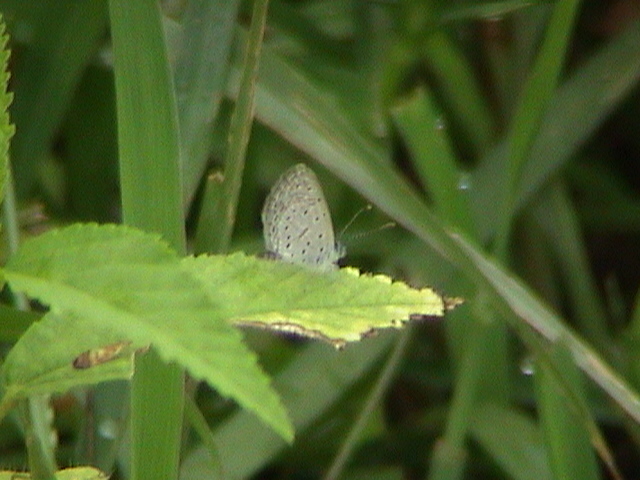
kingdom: Animalia
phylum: Arthropoda
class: Insecta
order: Lepidoptera
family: Lycaenidae
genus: Zizula
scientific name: Zizula hylax
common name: Gaika blue
